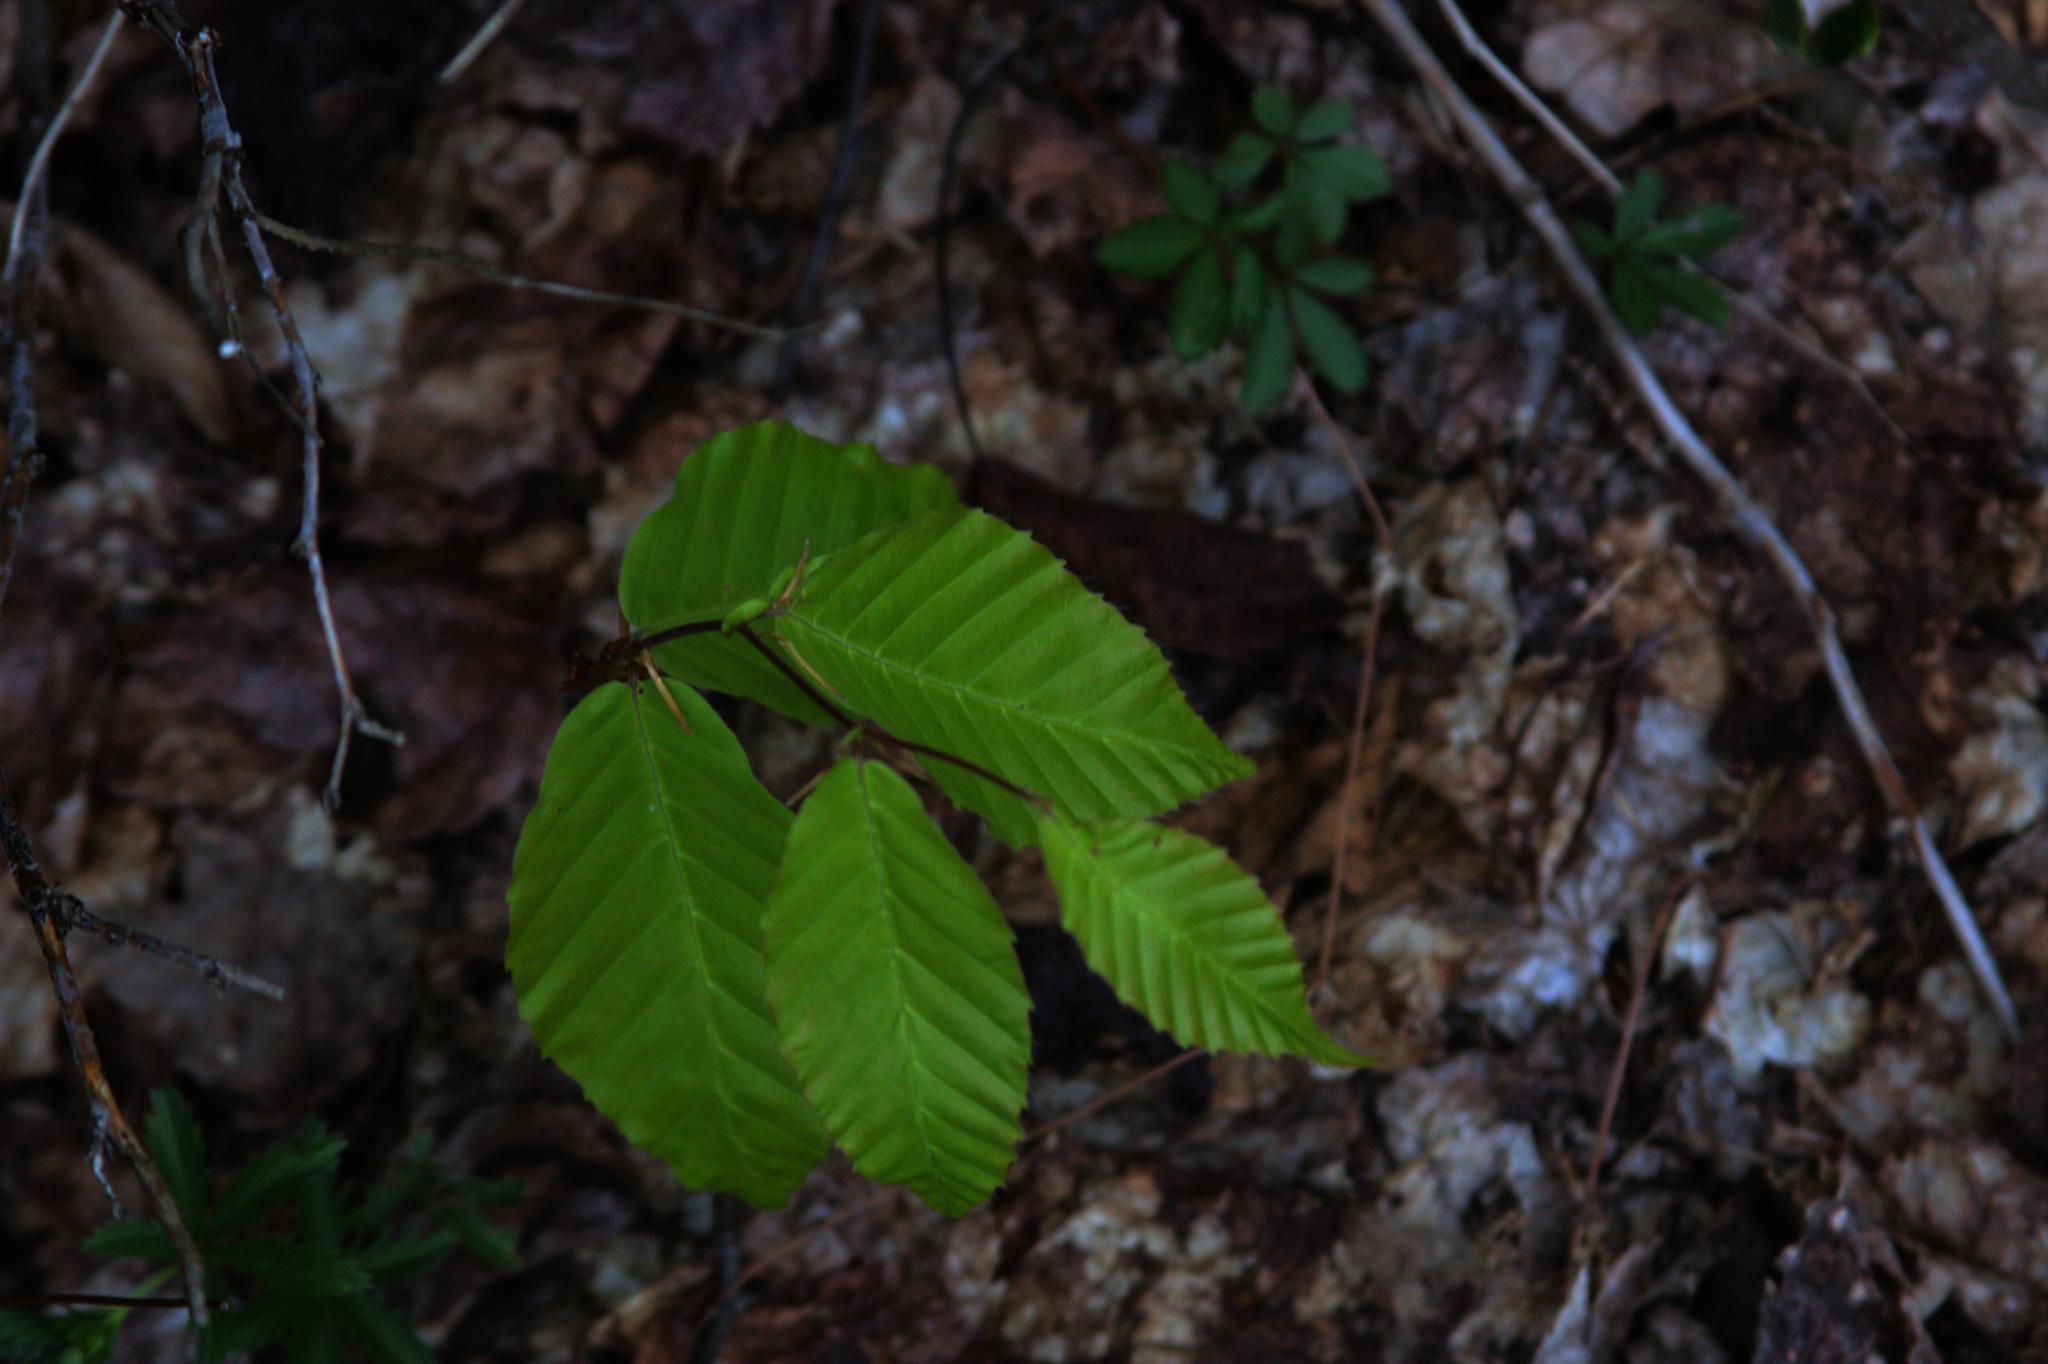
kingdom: Plantae
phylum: Tracheophyta
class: Magnoliopsida
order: Fagales
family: Fagaceae
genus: Fagus
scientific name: Fagus grandifolia
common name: American beech
